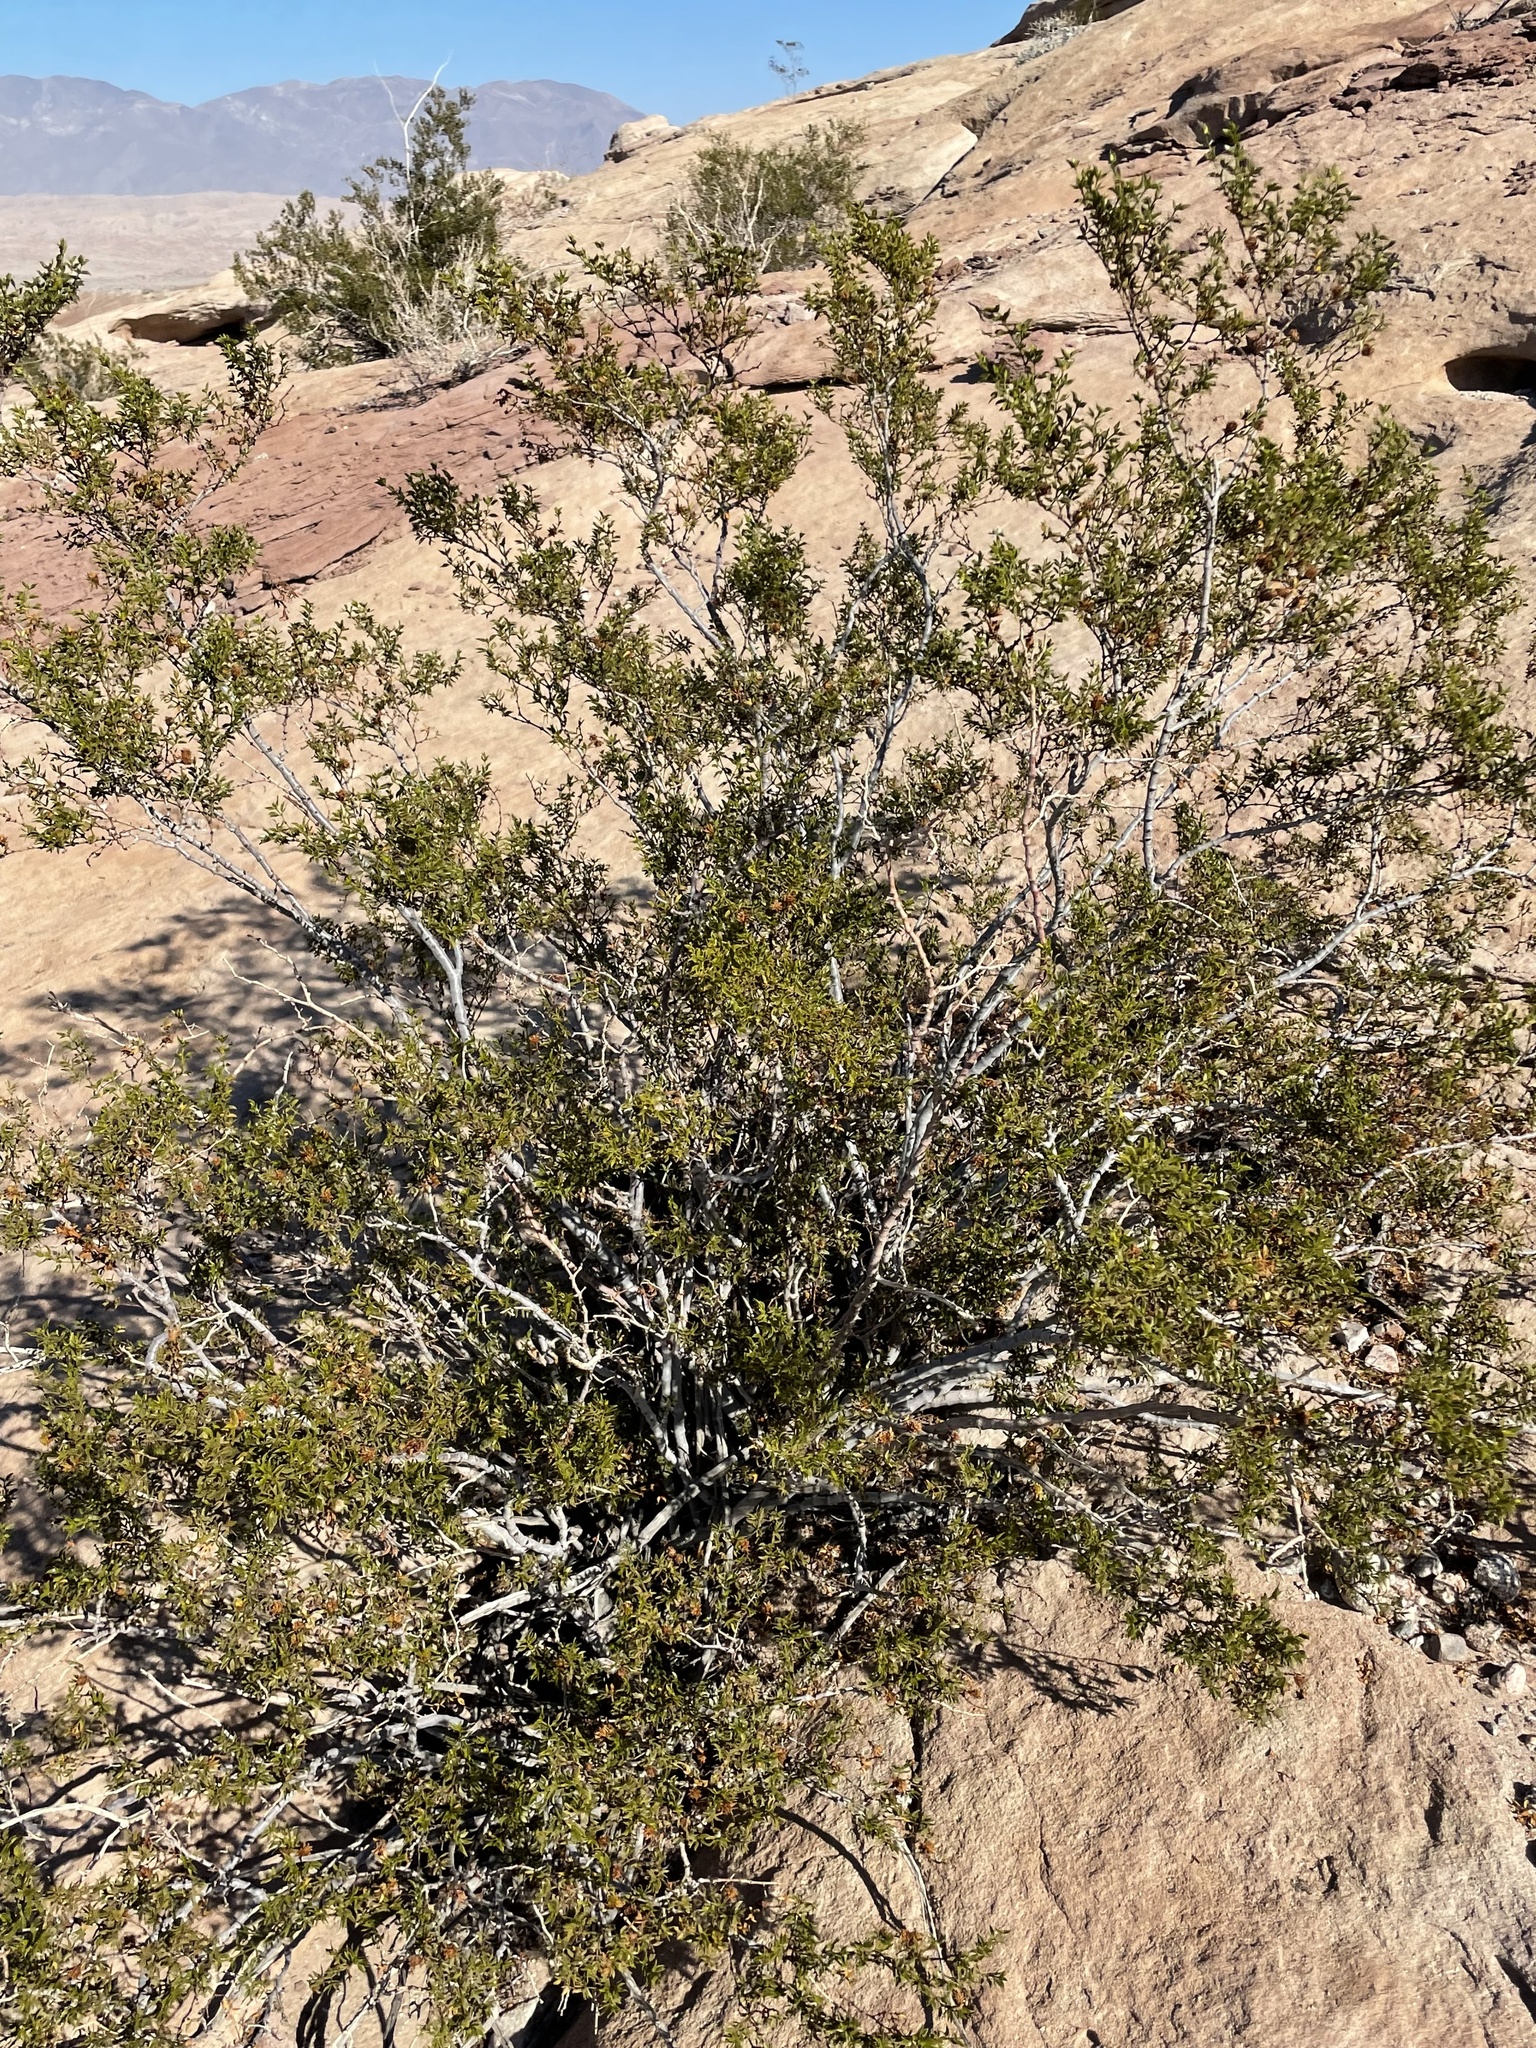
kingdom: Plantae
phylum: Tracheophyta
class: Magnoliopsida
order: Zygophyllales
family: Zygophyllaceae
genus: Larrea
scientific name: Larrea tridentata
